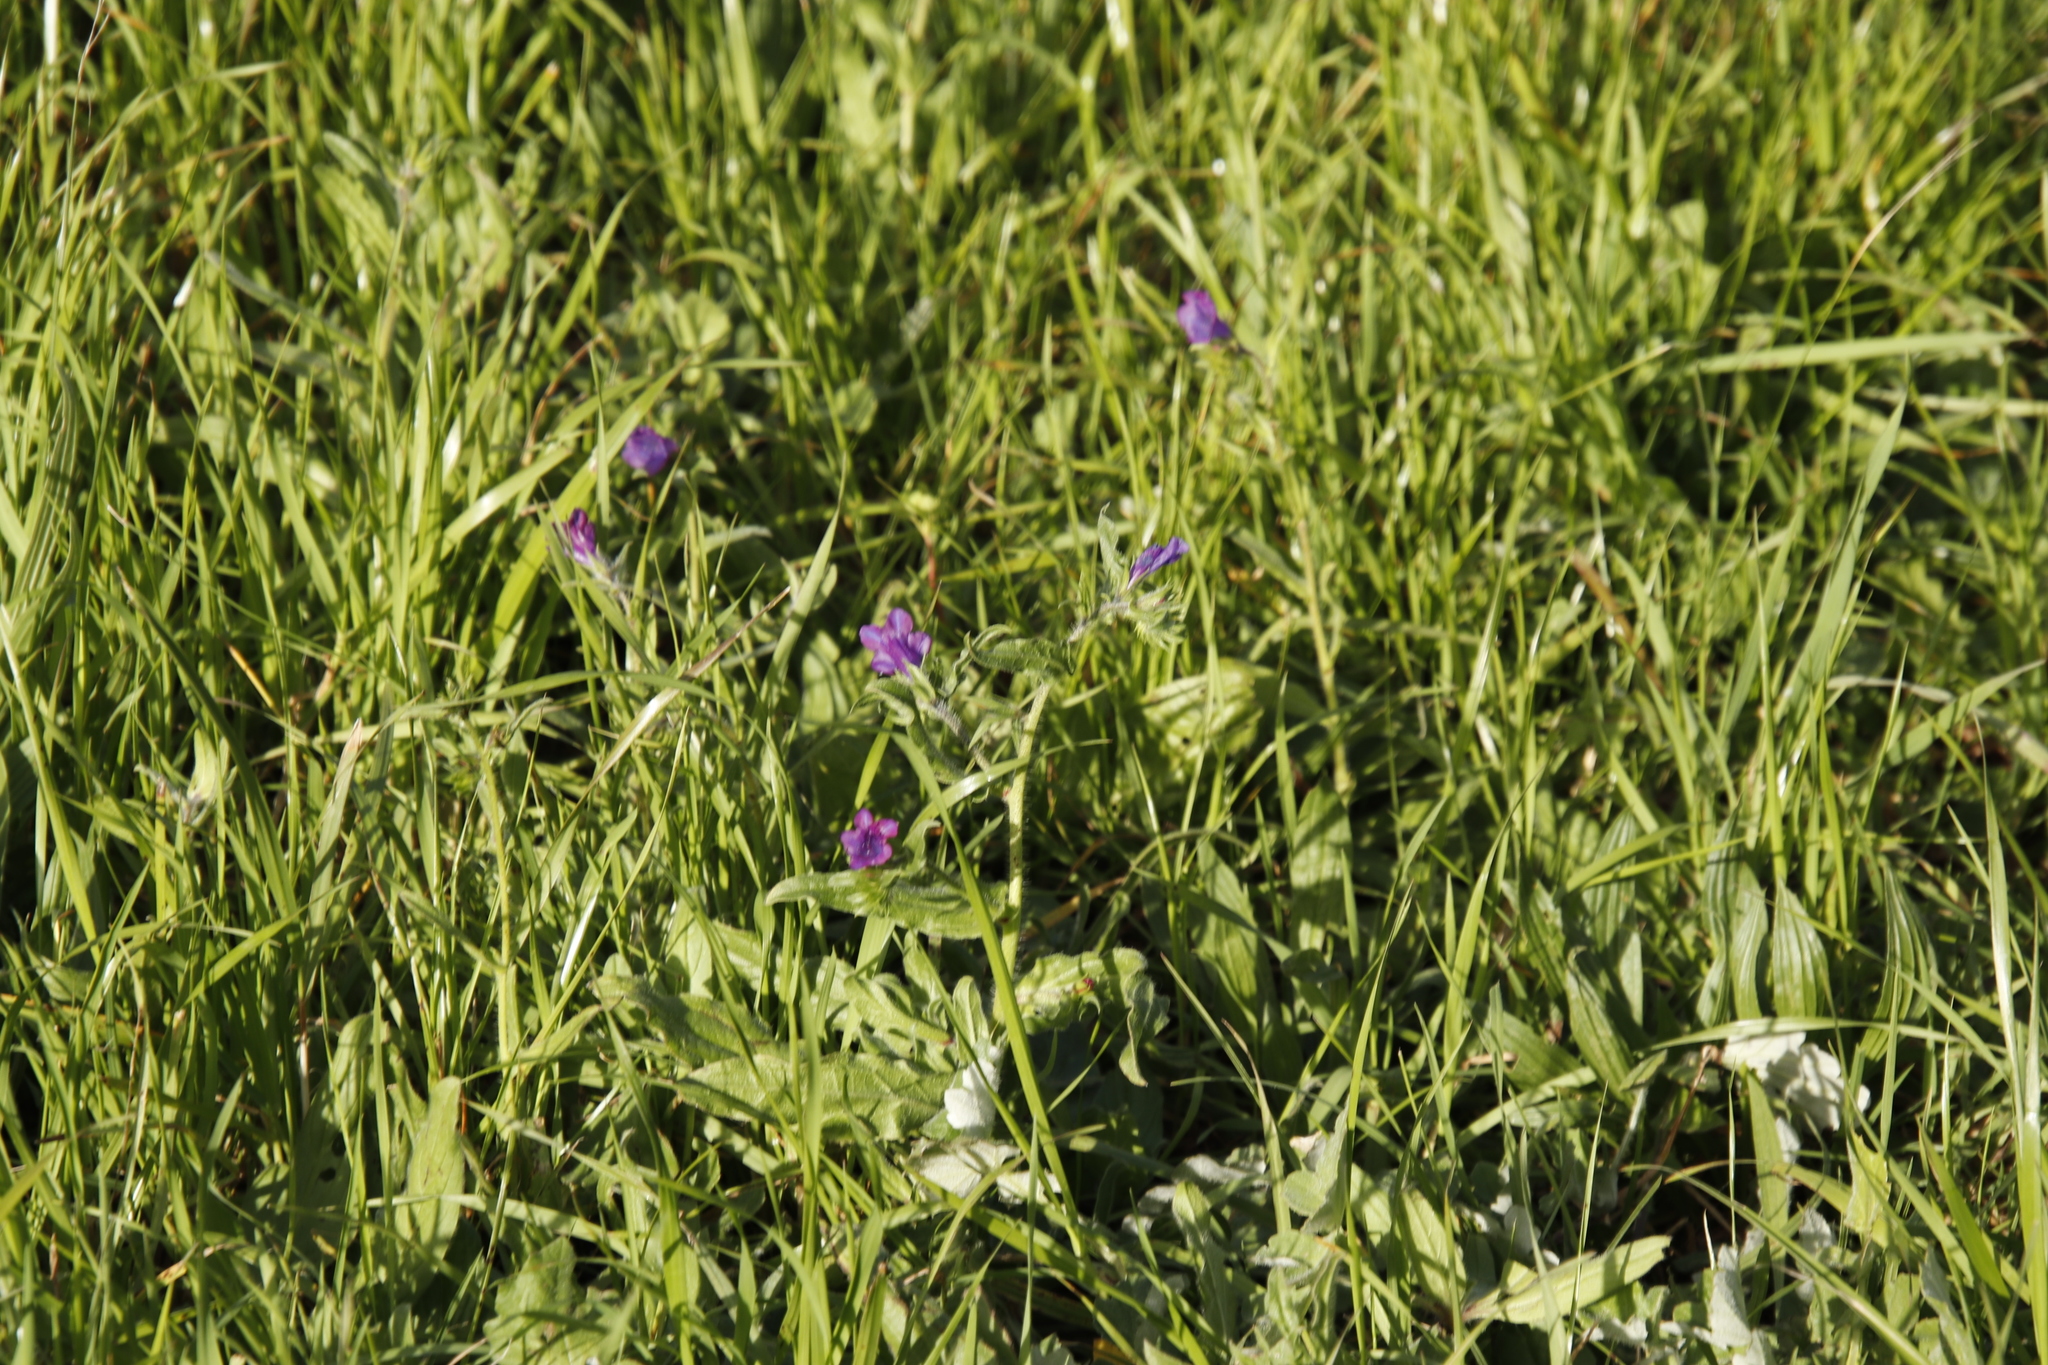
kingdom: Plantae
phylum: Tracheophyta
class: Magnoliopsida
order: Boraginales
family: Boraginaceae
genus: Echium
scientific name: Echium plantagineum
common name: Purple viper's-bugloss
